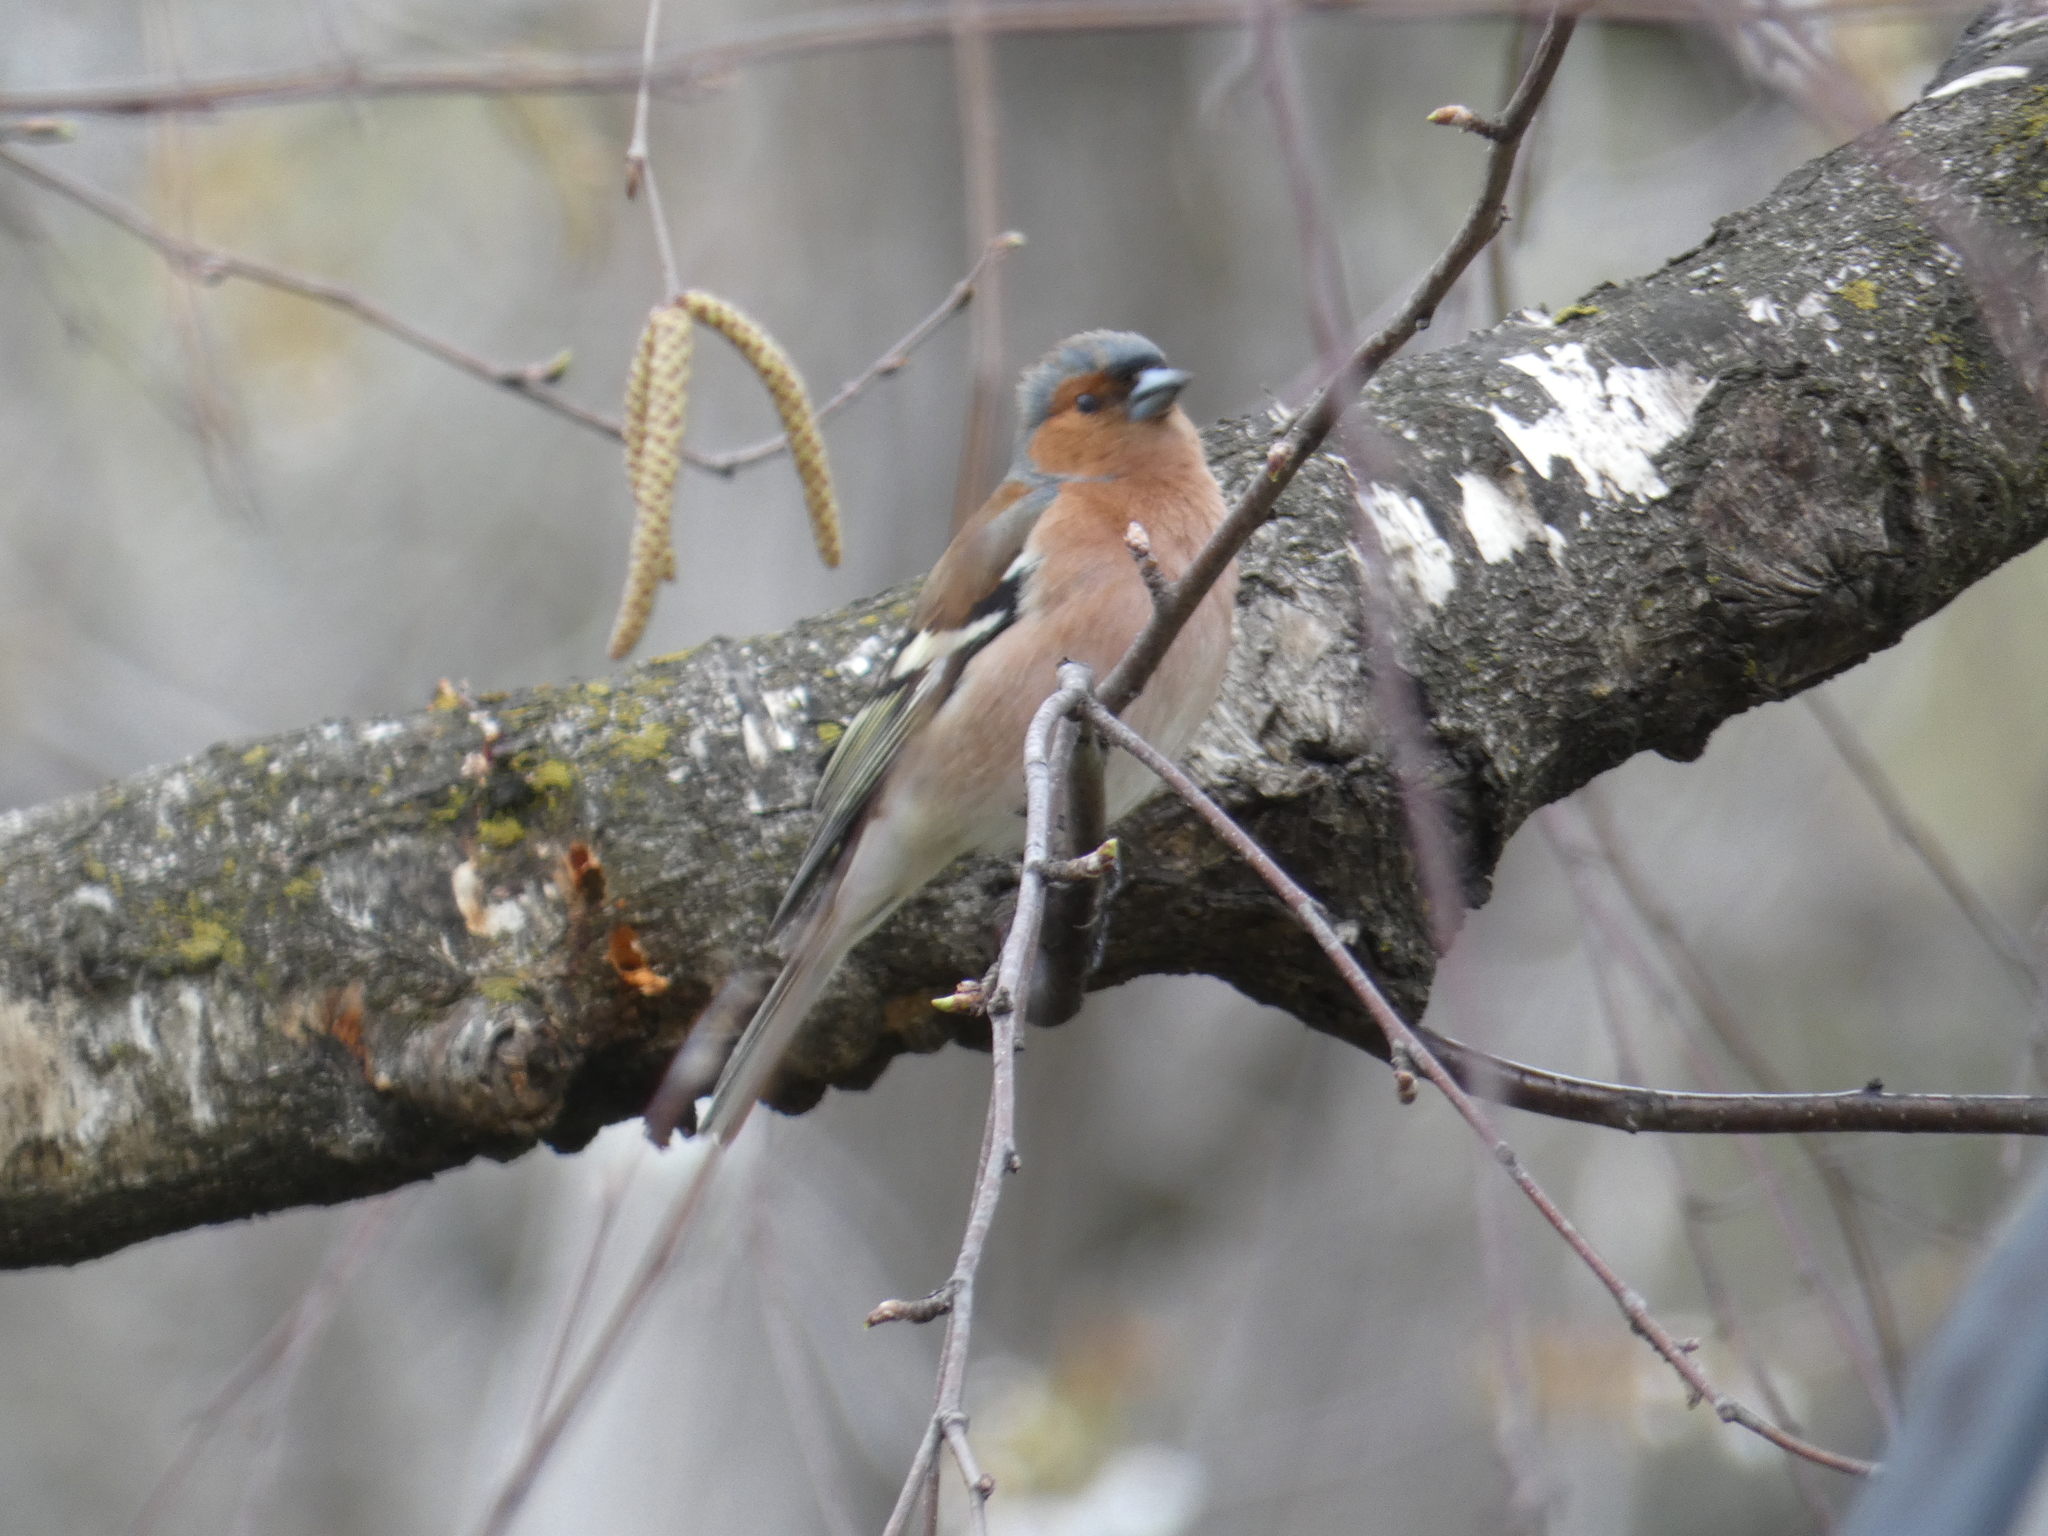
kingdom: Animalia
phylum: Chordata
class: Aves
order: Passeriformes
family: Fringillidae
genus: Fringilla
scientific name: Fringilla coelebs
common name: Common chaffinch
